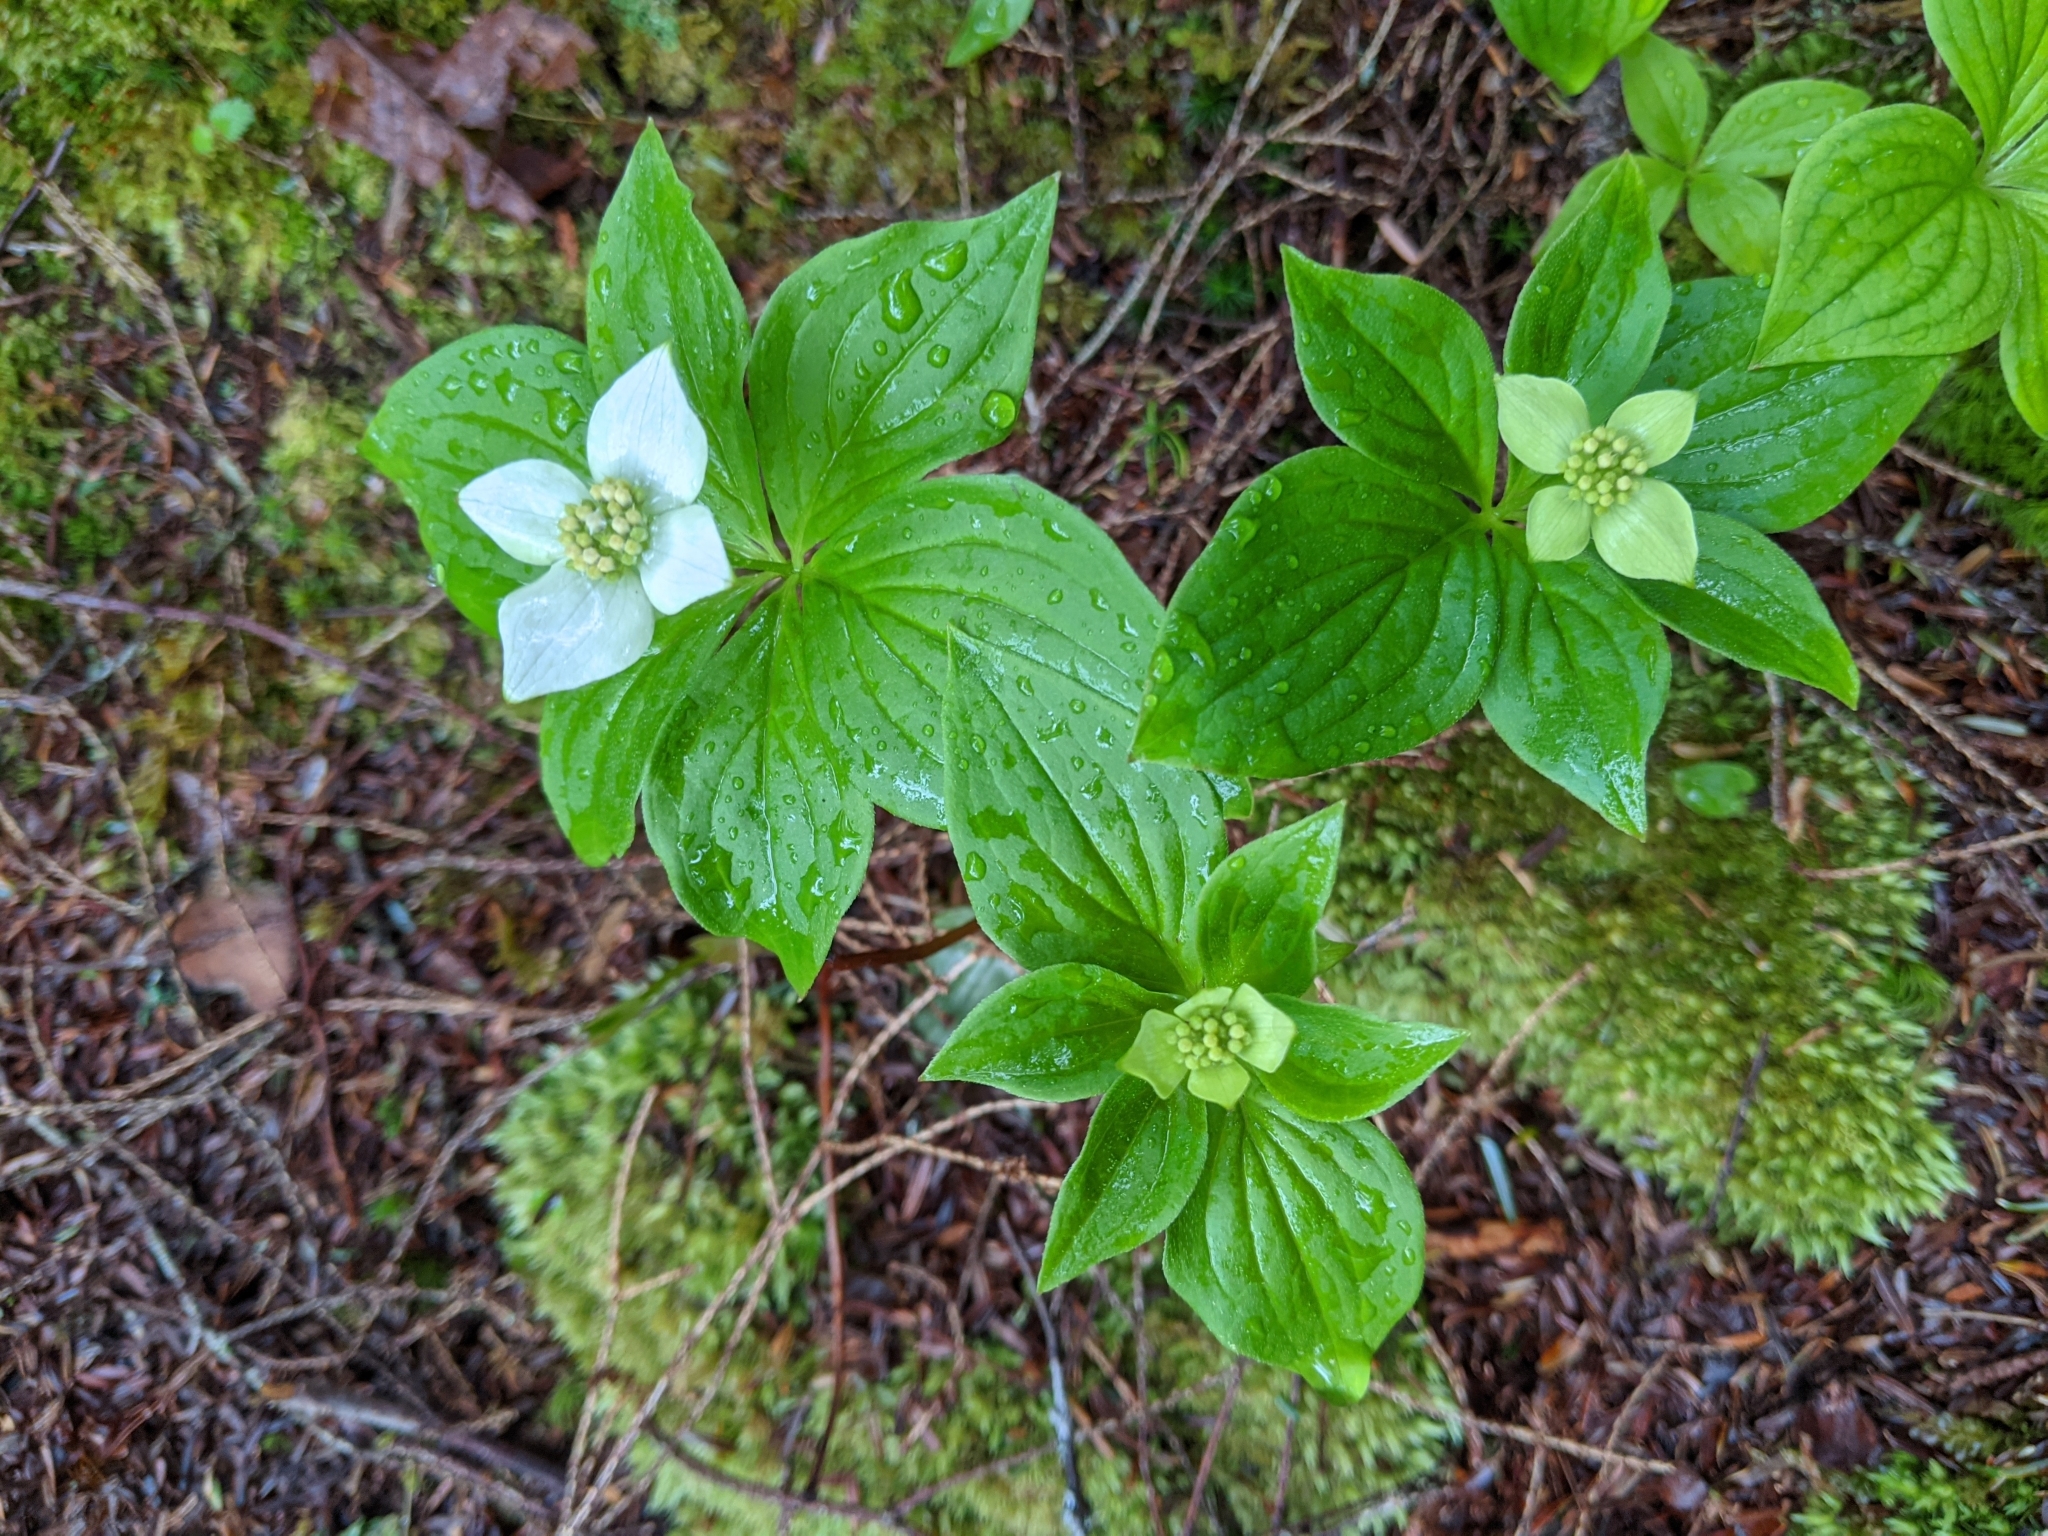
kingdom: Plantae
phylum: Tracheophyta
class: Magnoliopsida
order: Cornales
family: Cornaceae
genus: Cornus
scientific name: Cornus canadensis
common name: Creeping dogwood
